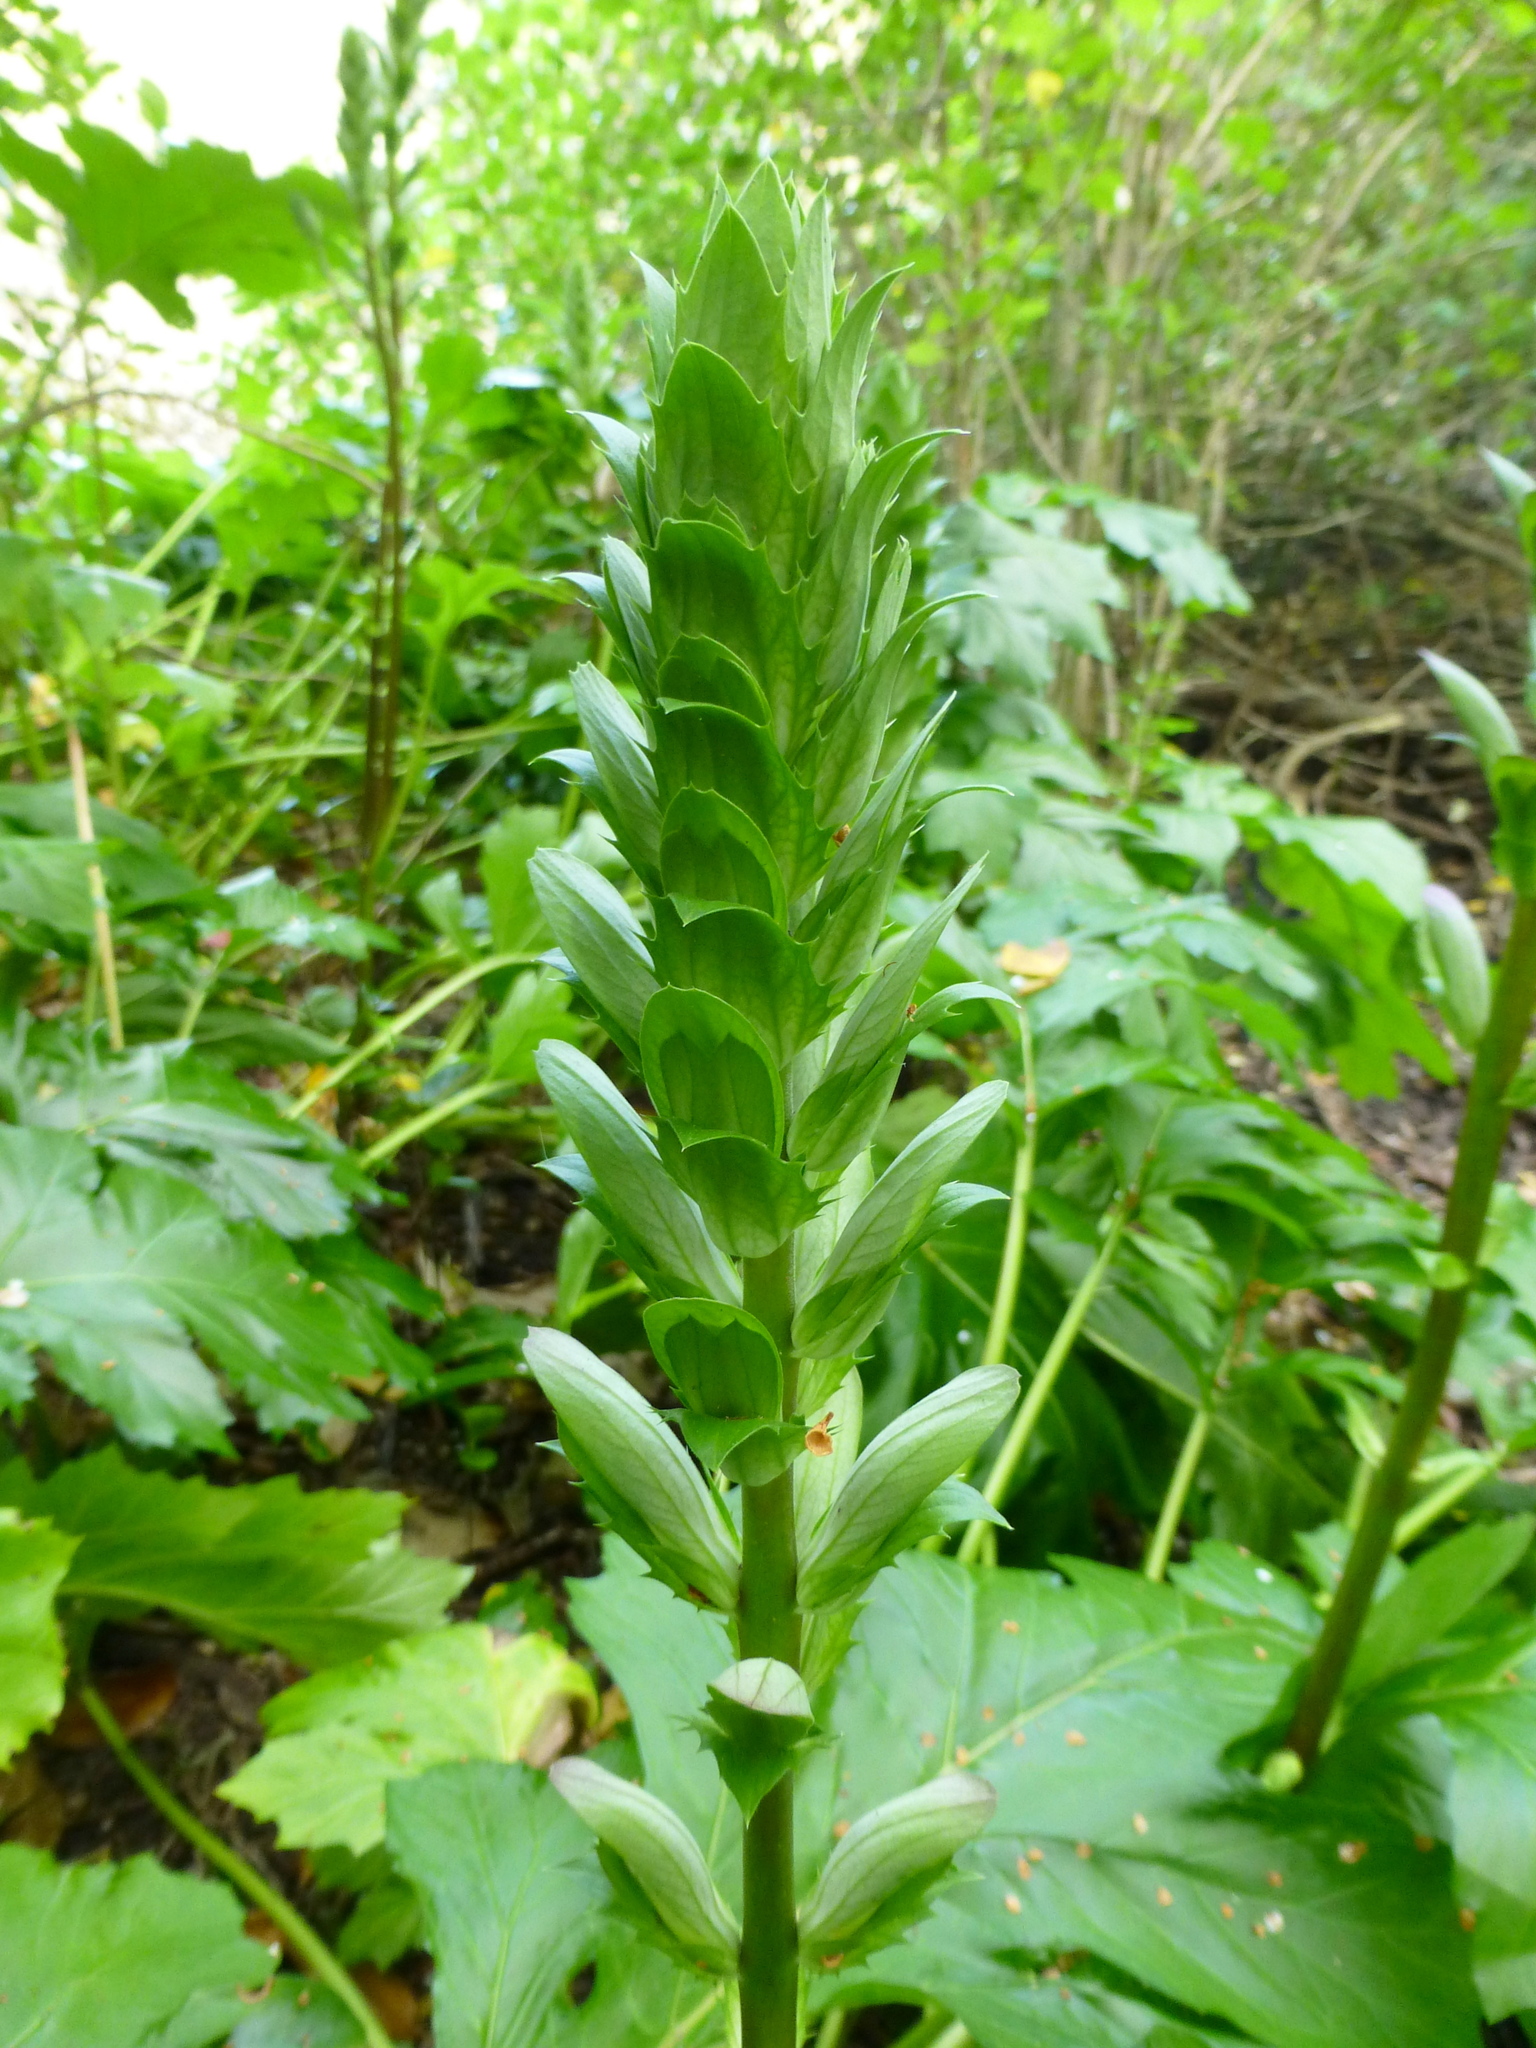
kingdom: Plantae
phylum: Tracheophyta
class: Magnoliopsida
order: Lamiales
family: Acanthaceae
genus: Acanthus
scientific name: Acanthus mollis
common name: Bear's-breech
